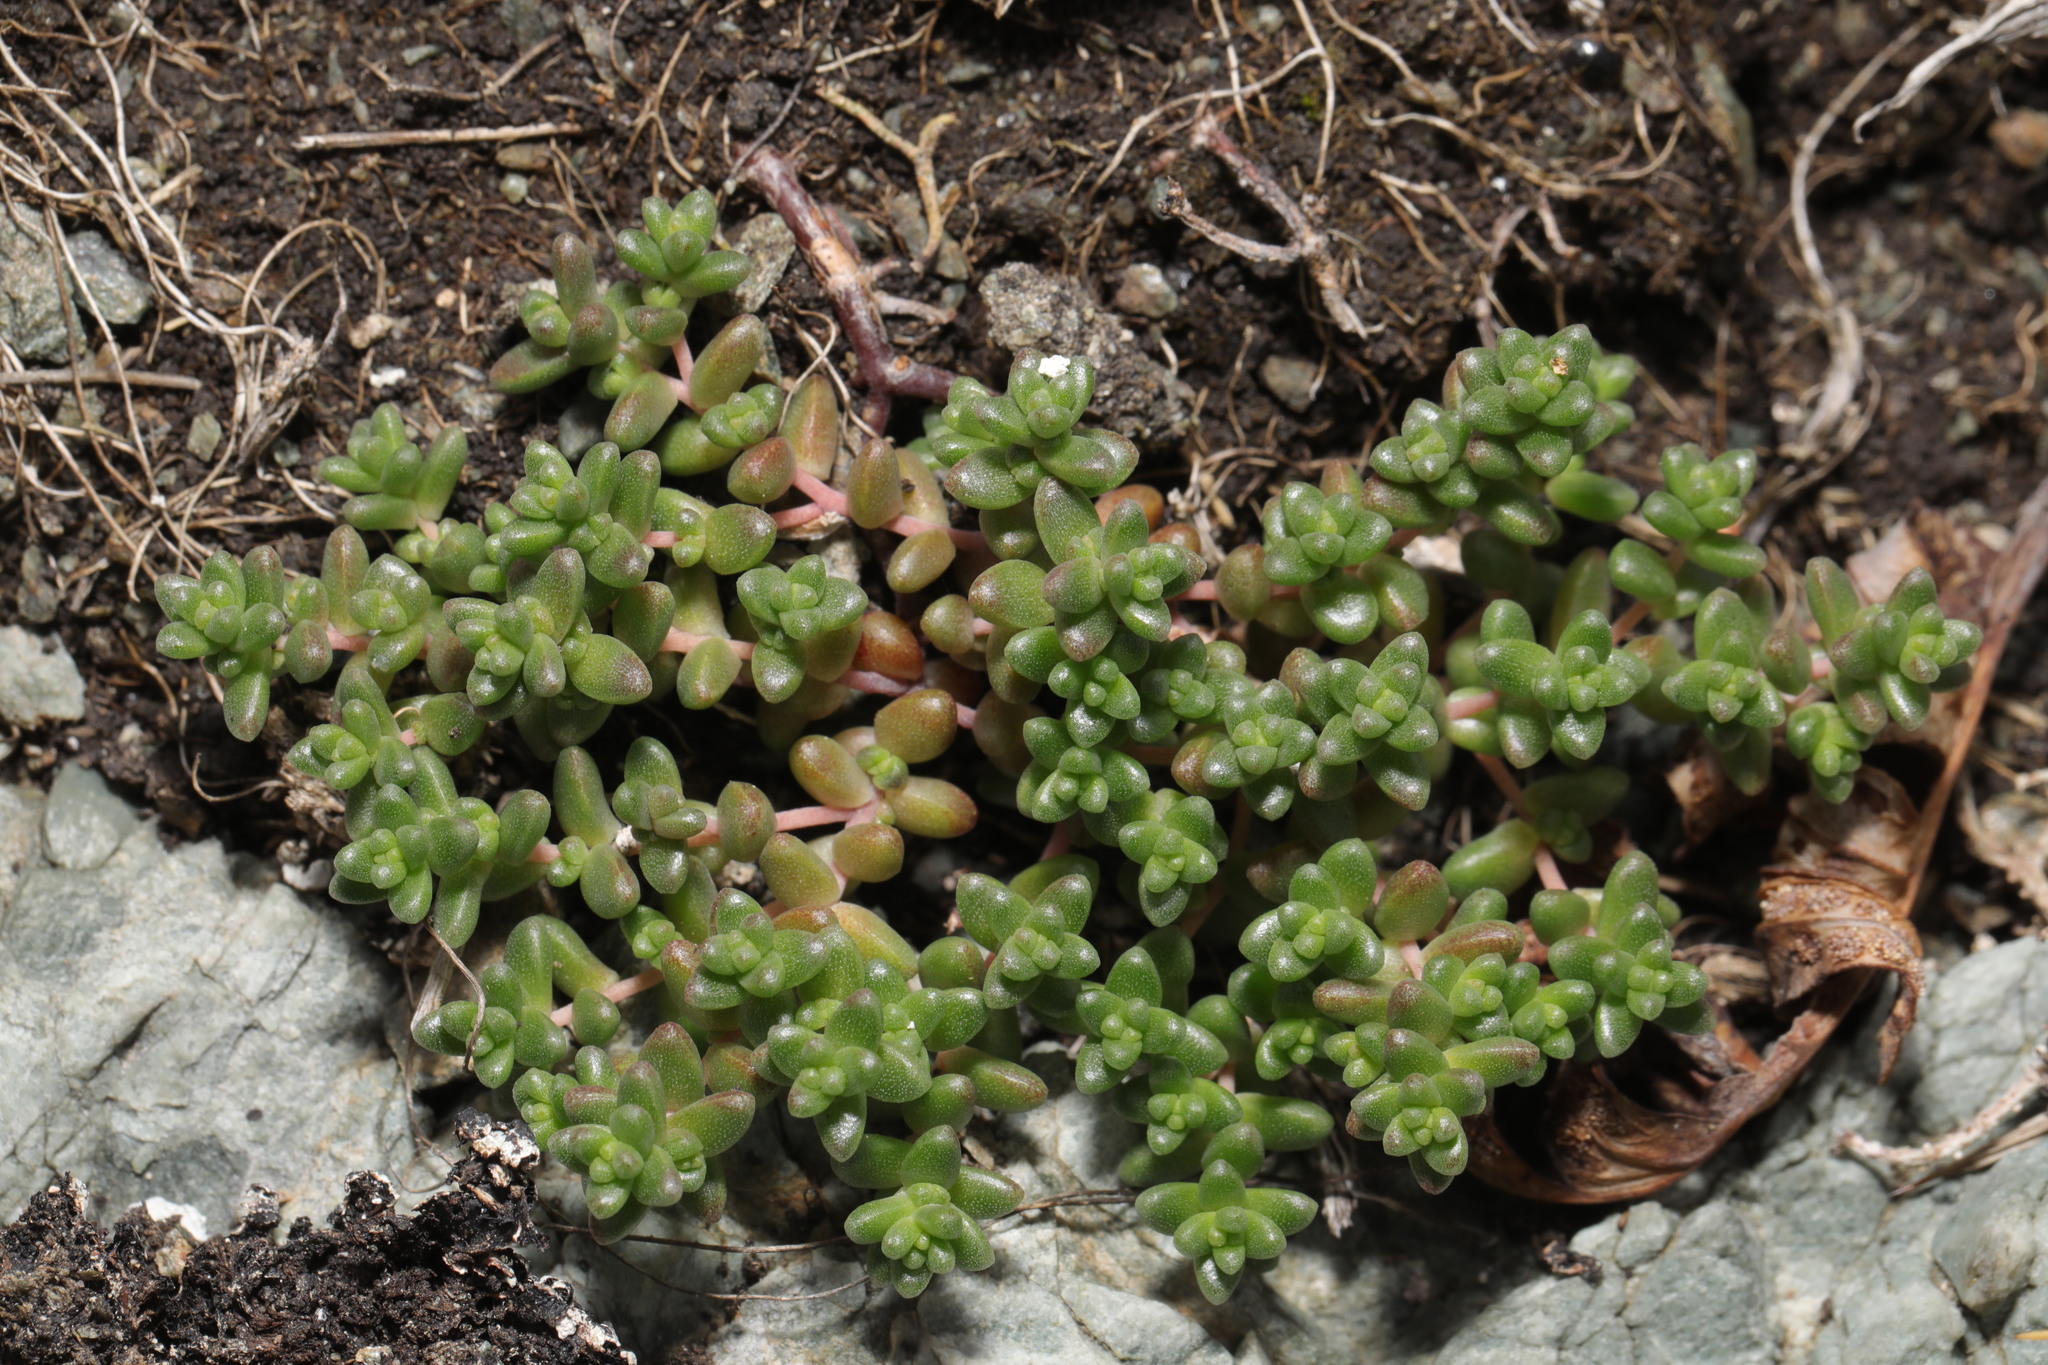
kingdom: Plantae
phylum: Tracheophyta
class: Magnoliopsida
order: Saxifragales
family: Crassulaceae
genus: Sedum
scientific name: Sedum anglicum
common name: English stonecrop
